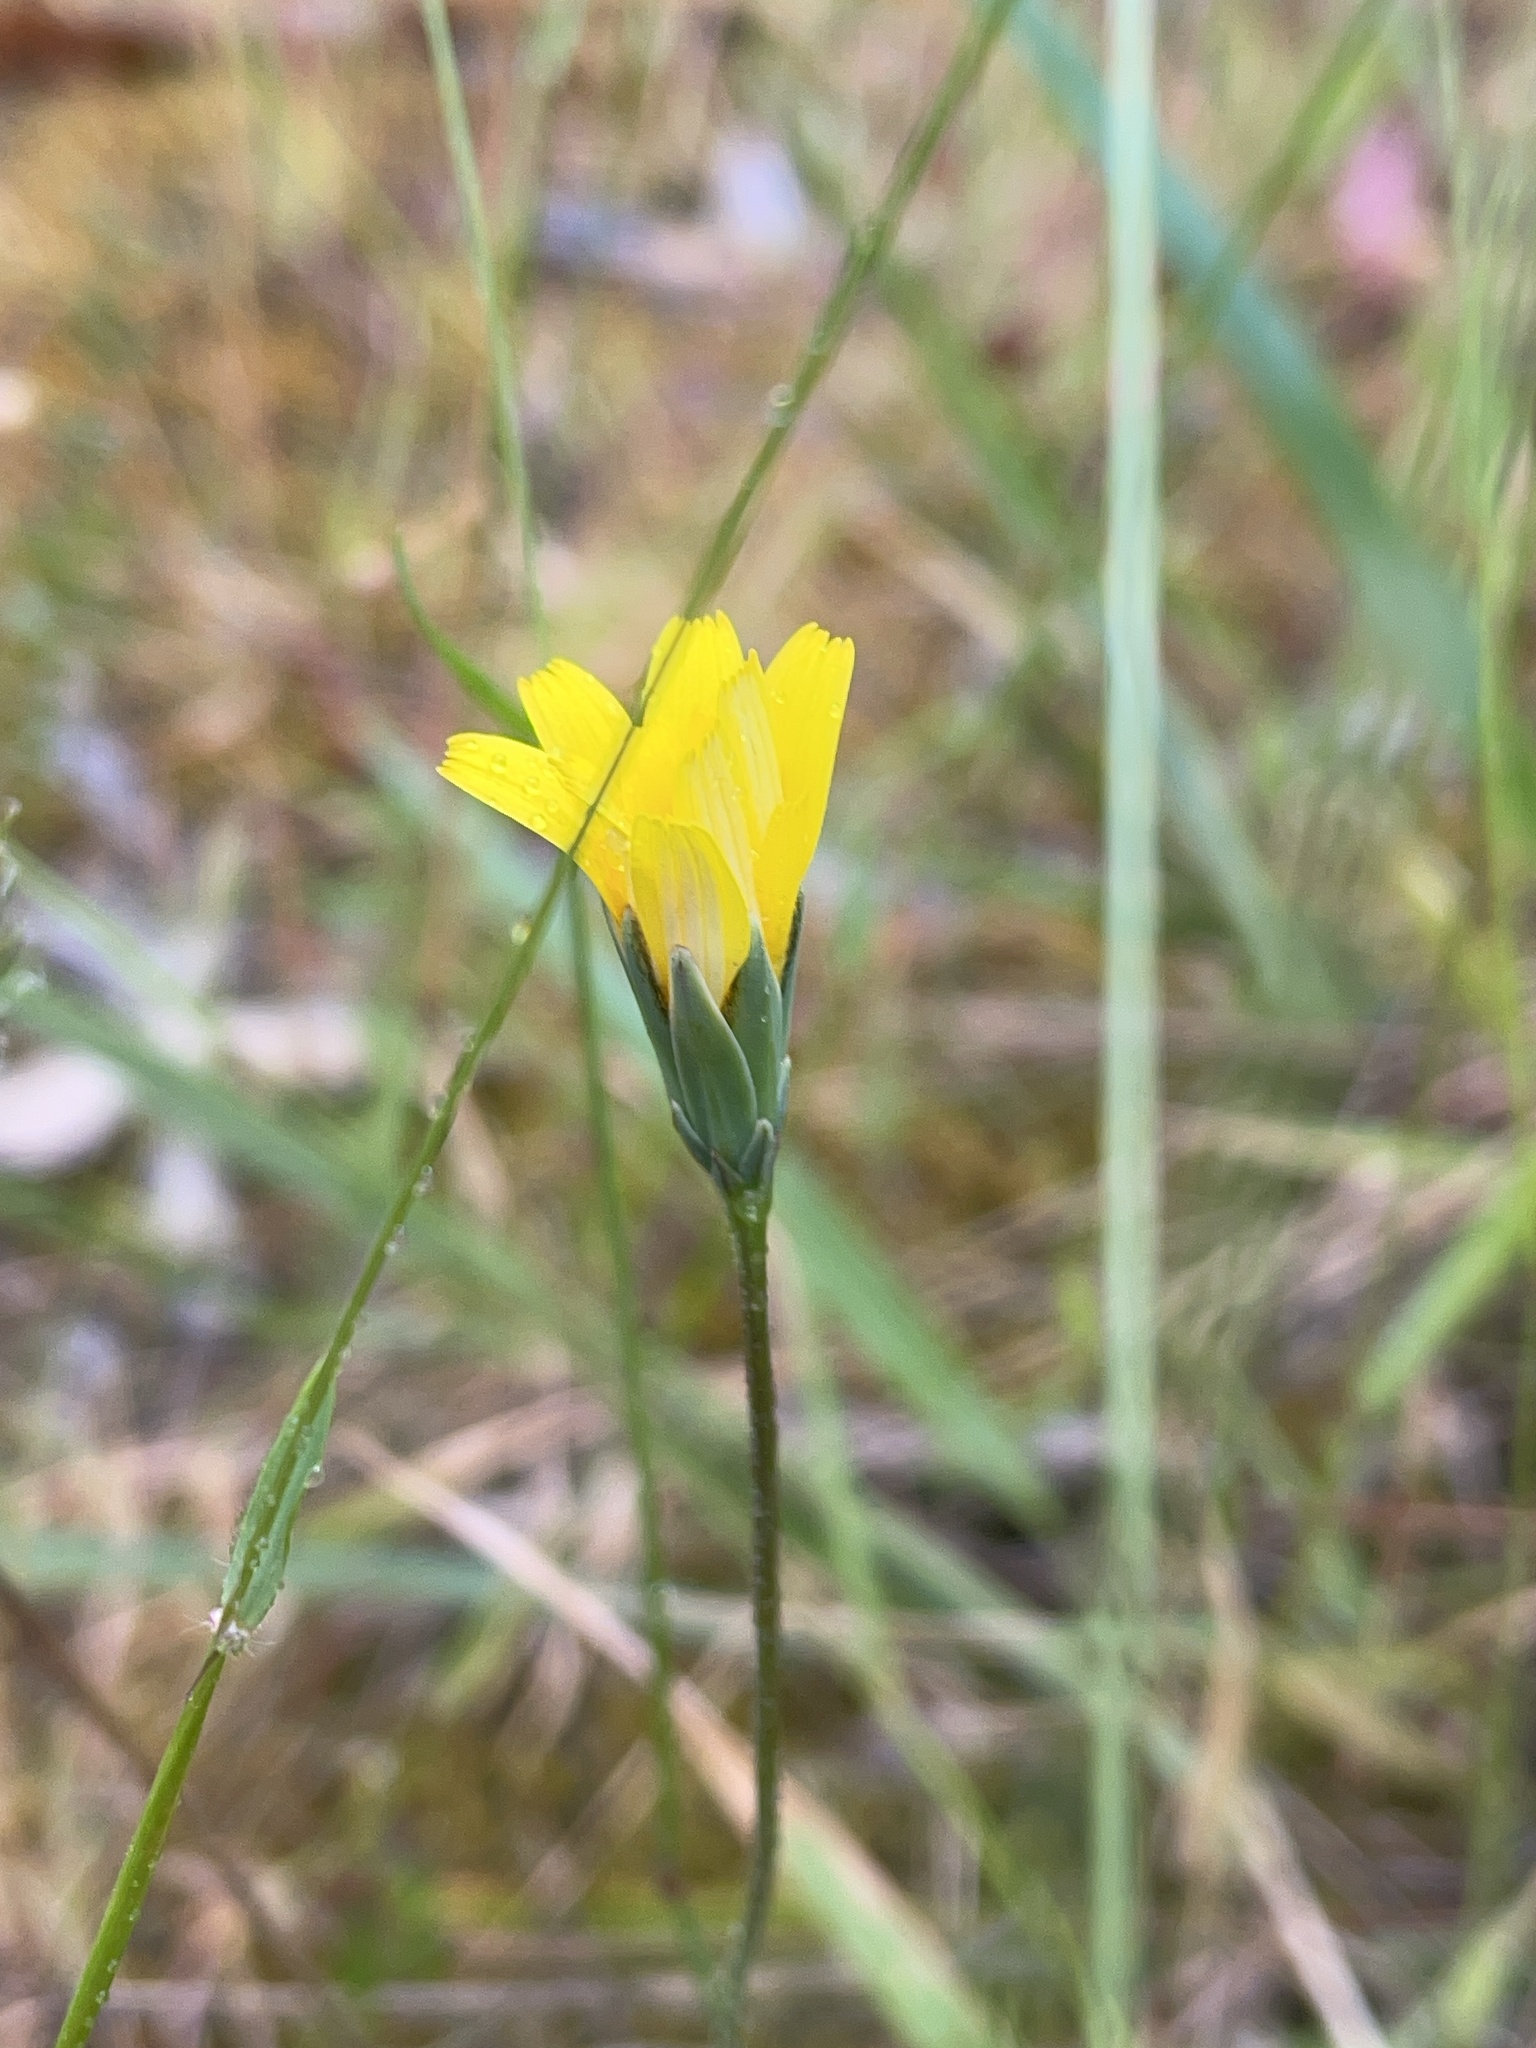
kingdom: Plantae
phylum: Tracheophyta
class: Magnoliopsida
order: Asterales
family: Asteraceae
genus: Microseris
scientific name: Microseris lanceolata
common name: Yam daisy
